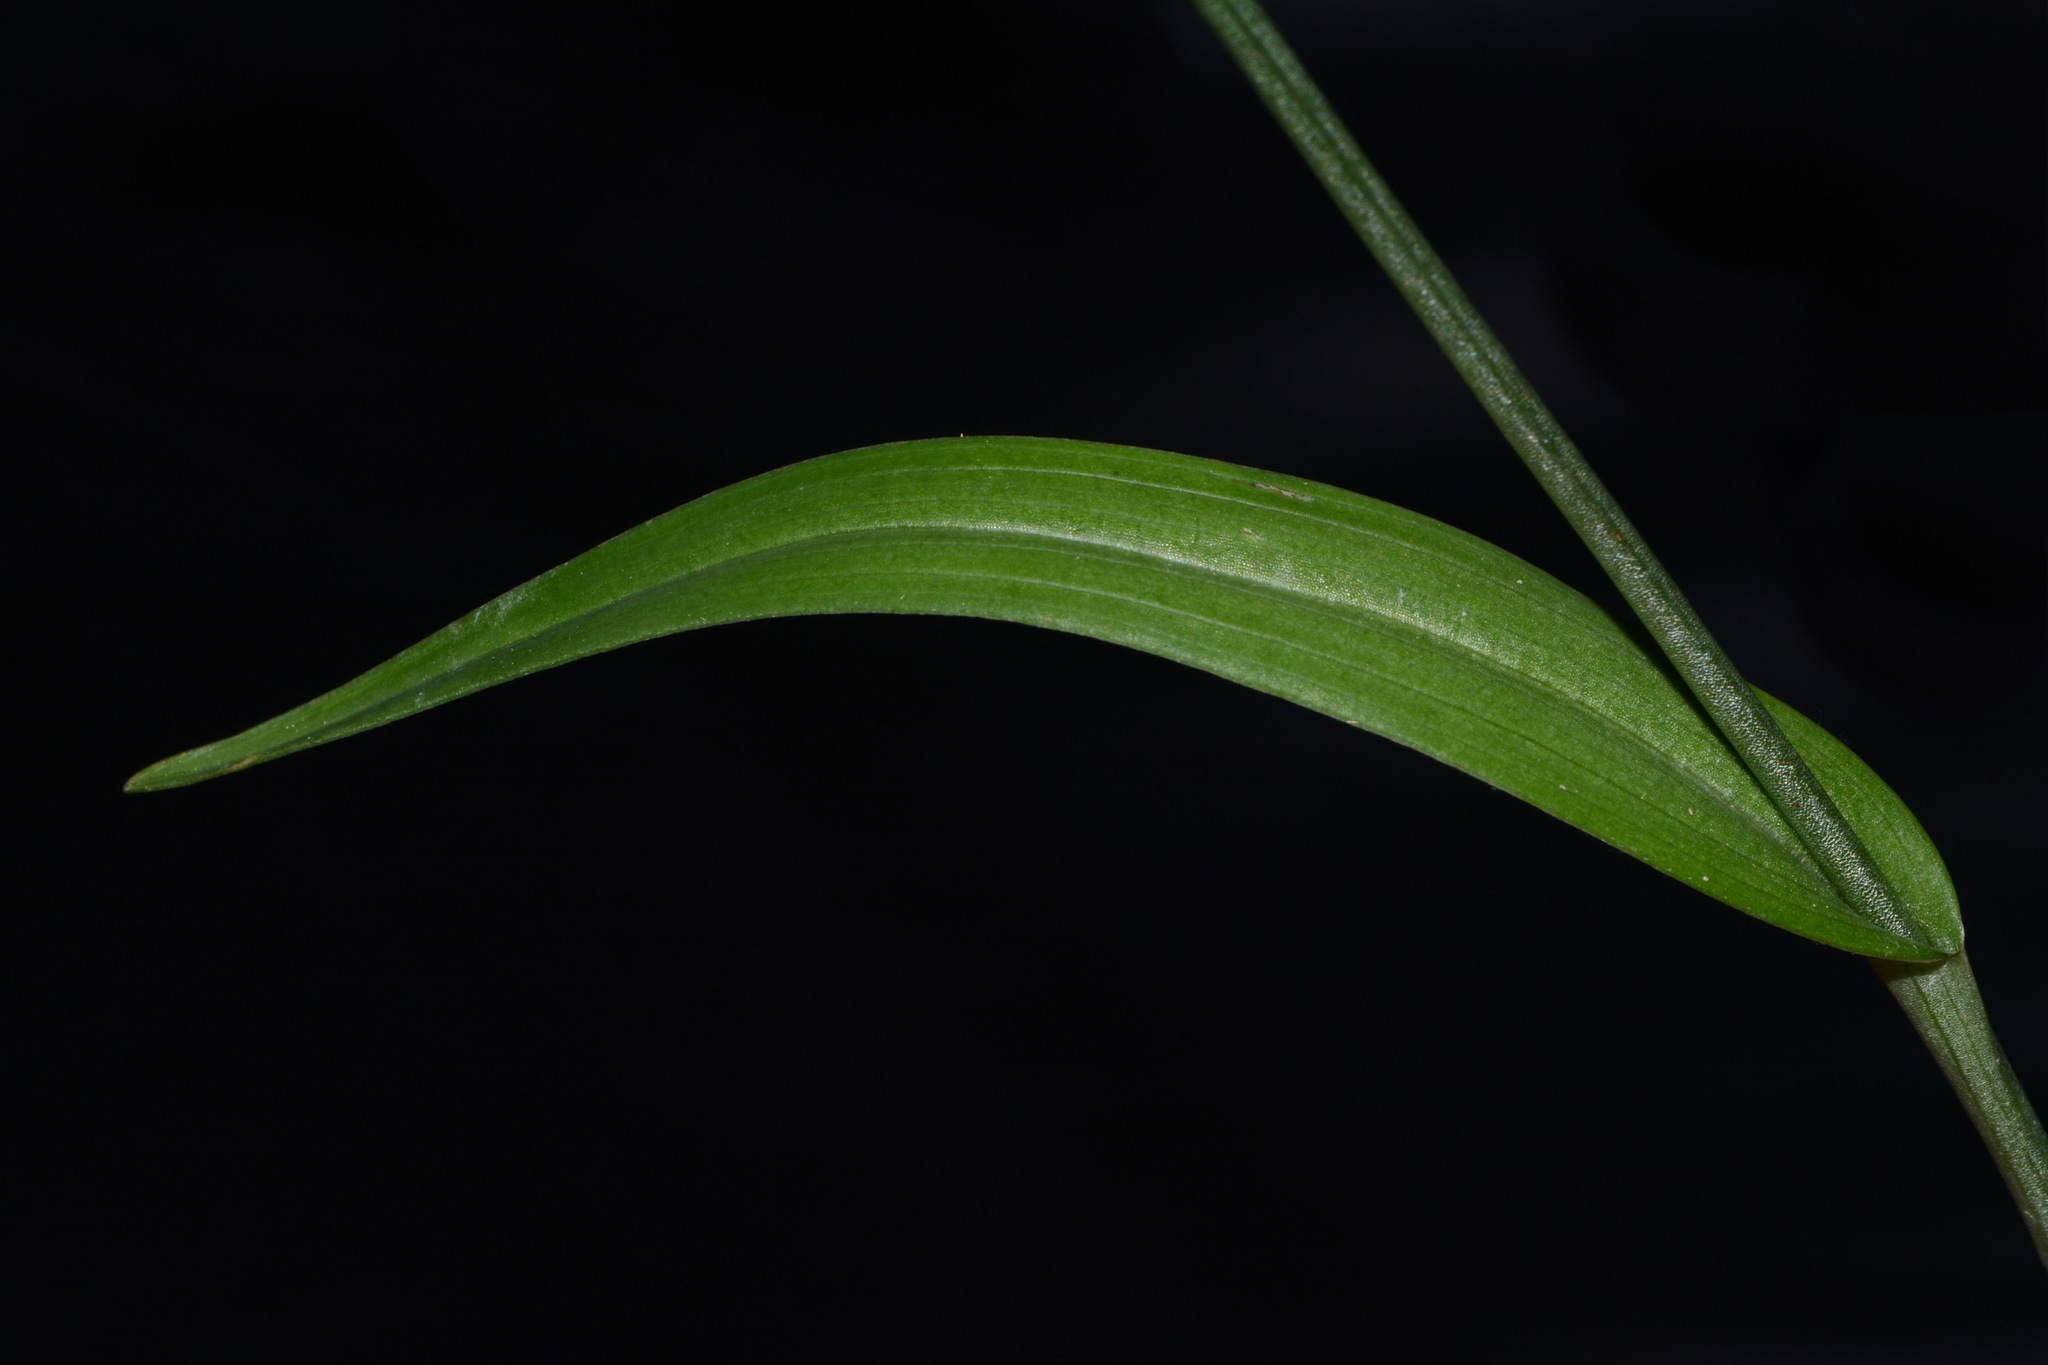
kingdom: Plantae
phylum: Tracheophyta
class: Liliopsida
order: Asparagales
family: Orchidaceae
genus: Platanthera
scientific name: Platanthera ciliaris
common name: Yellow fringed orchid
